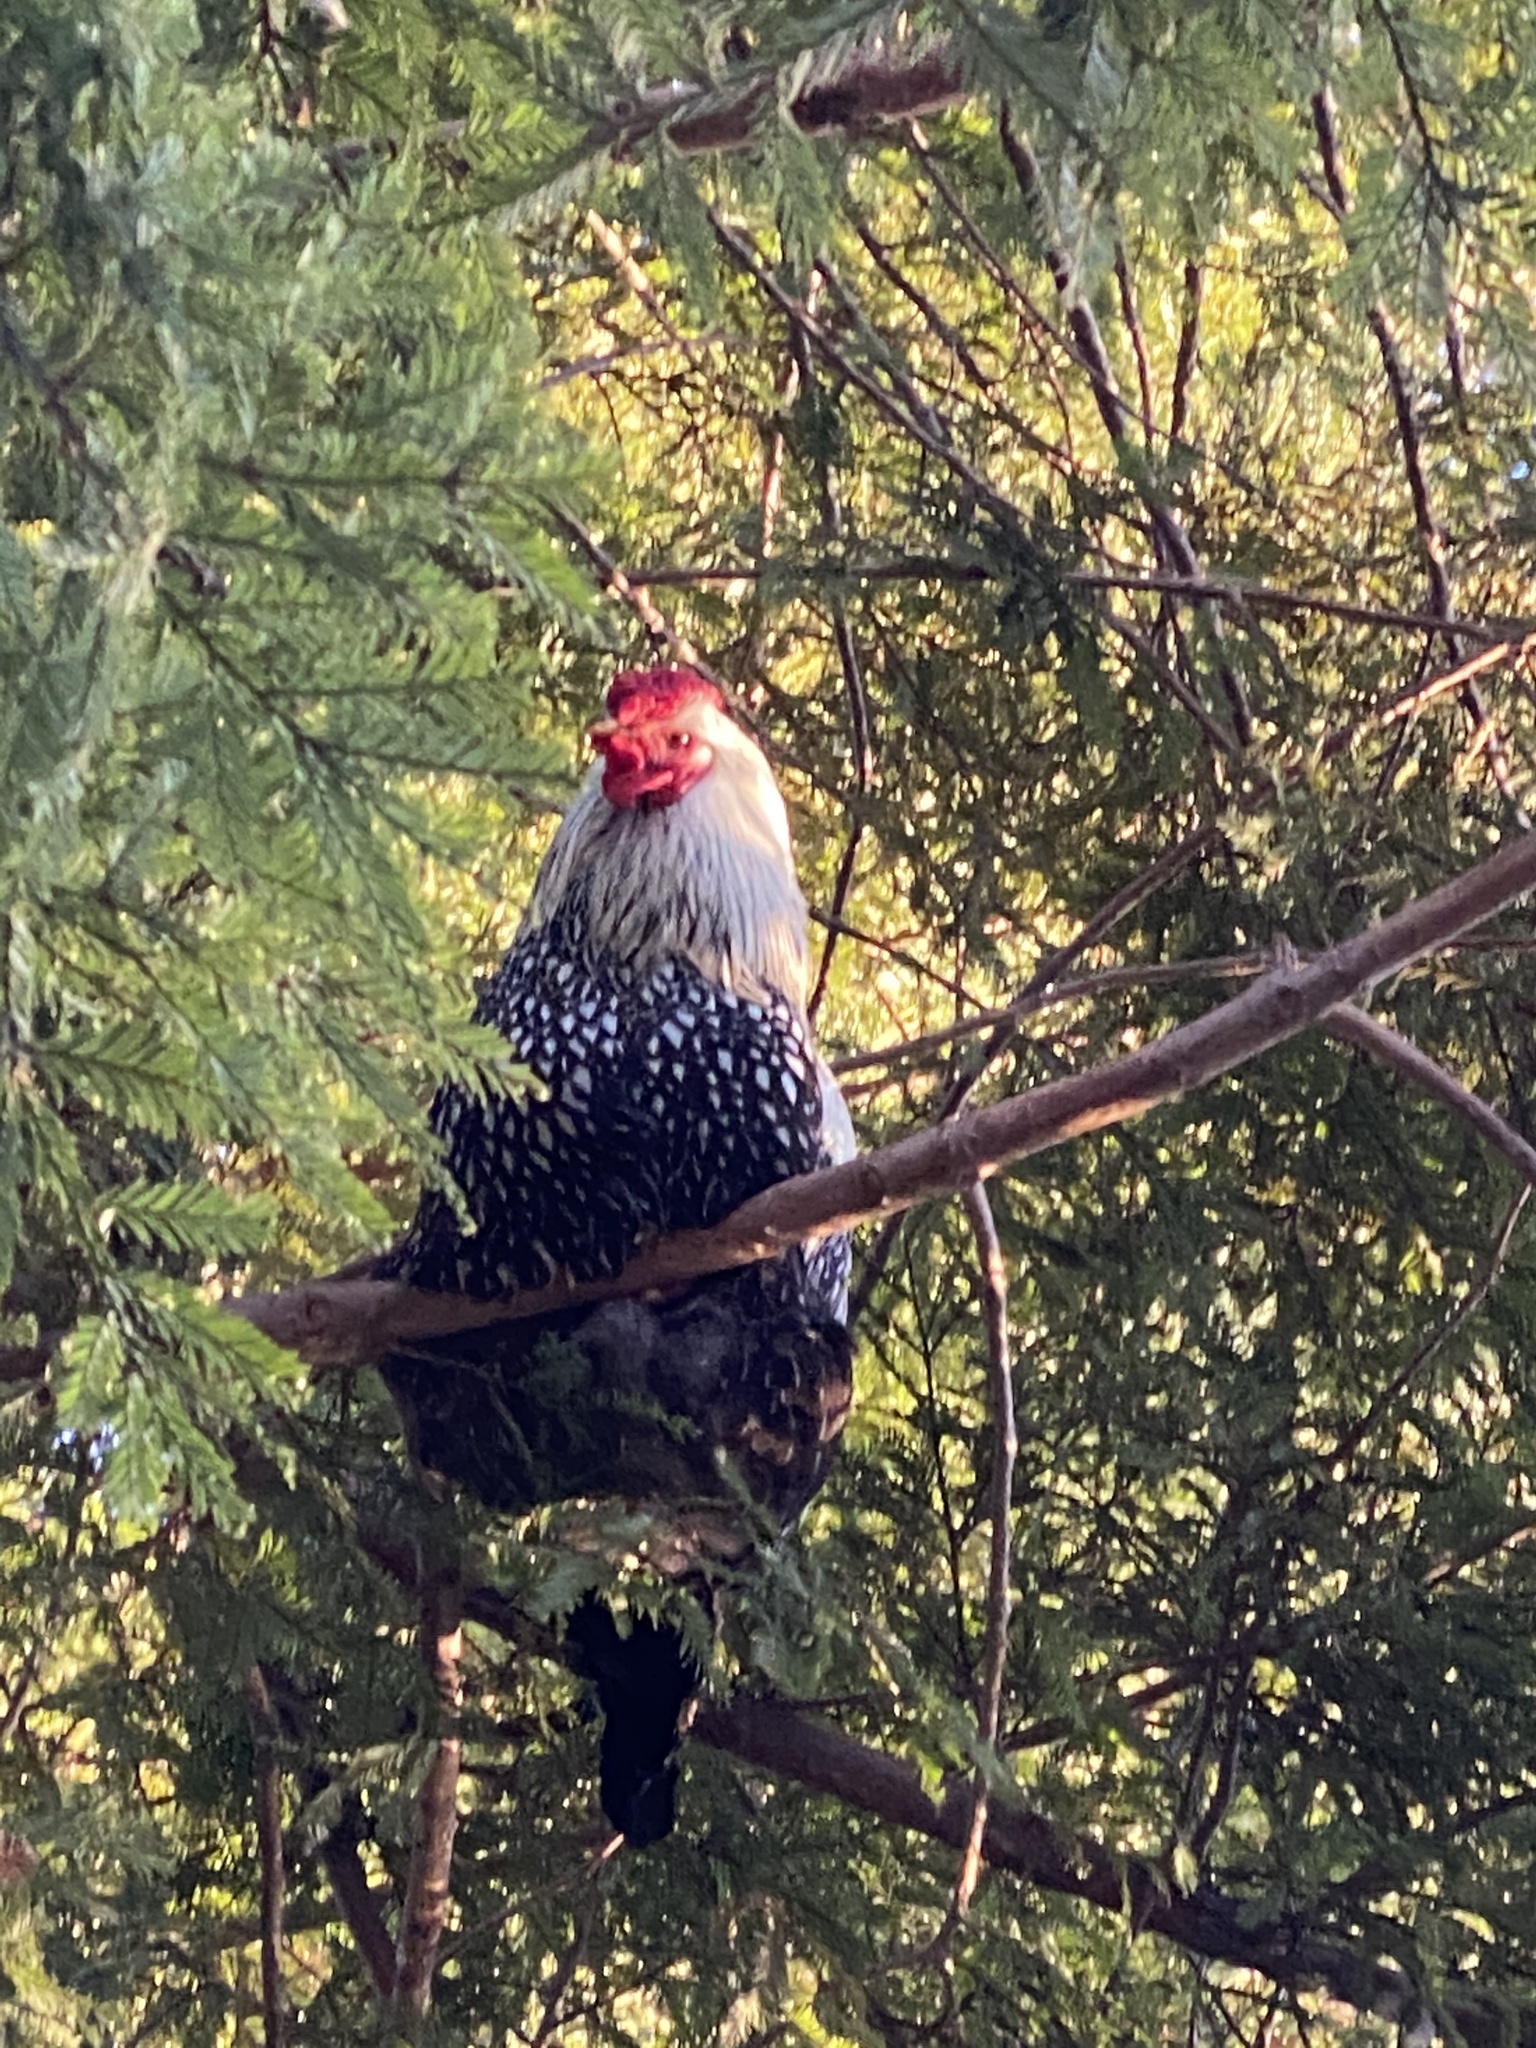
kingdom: Animalia
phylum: Chordata
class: Aves
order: Galliformes
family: Phasianidae
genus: Gallus
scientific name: Gallus gallus
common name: Red junglefowl
